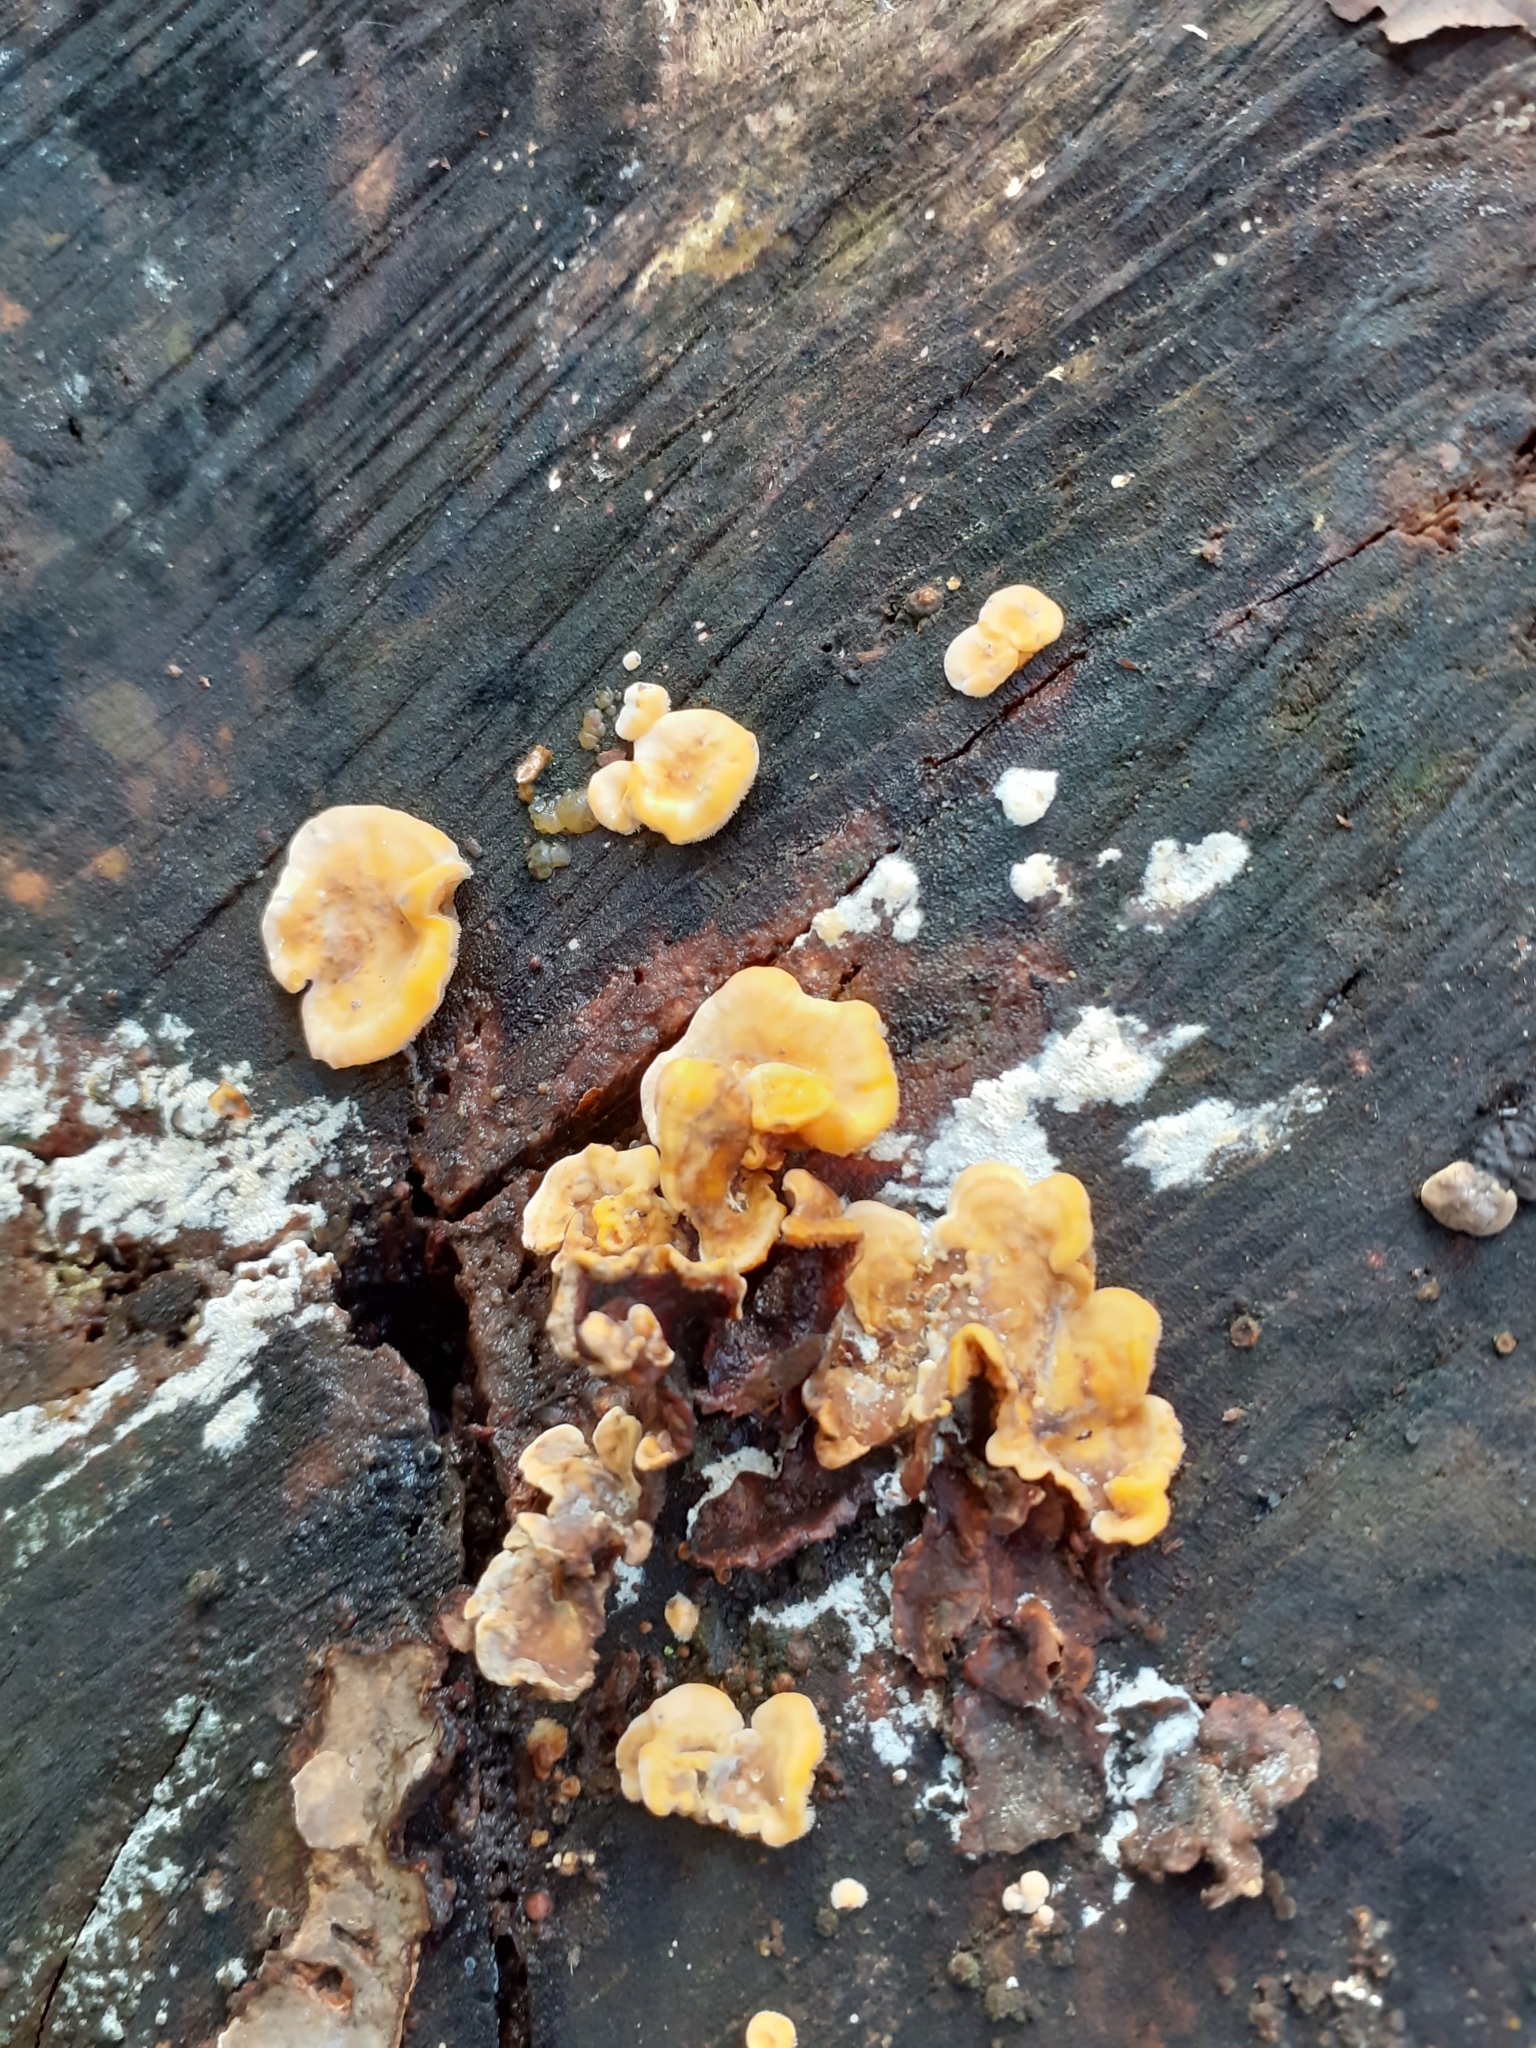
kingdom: Fungi
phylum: Basidiomycota
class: Agaricomycetes
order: Russulales
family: Stereaceae
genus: Stereum
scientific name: Stereum hirsutum
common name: Hairy curtain crust
